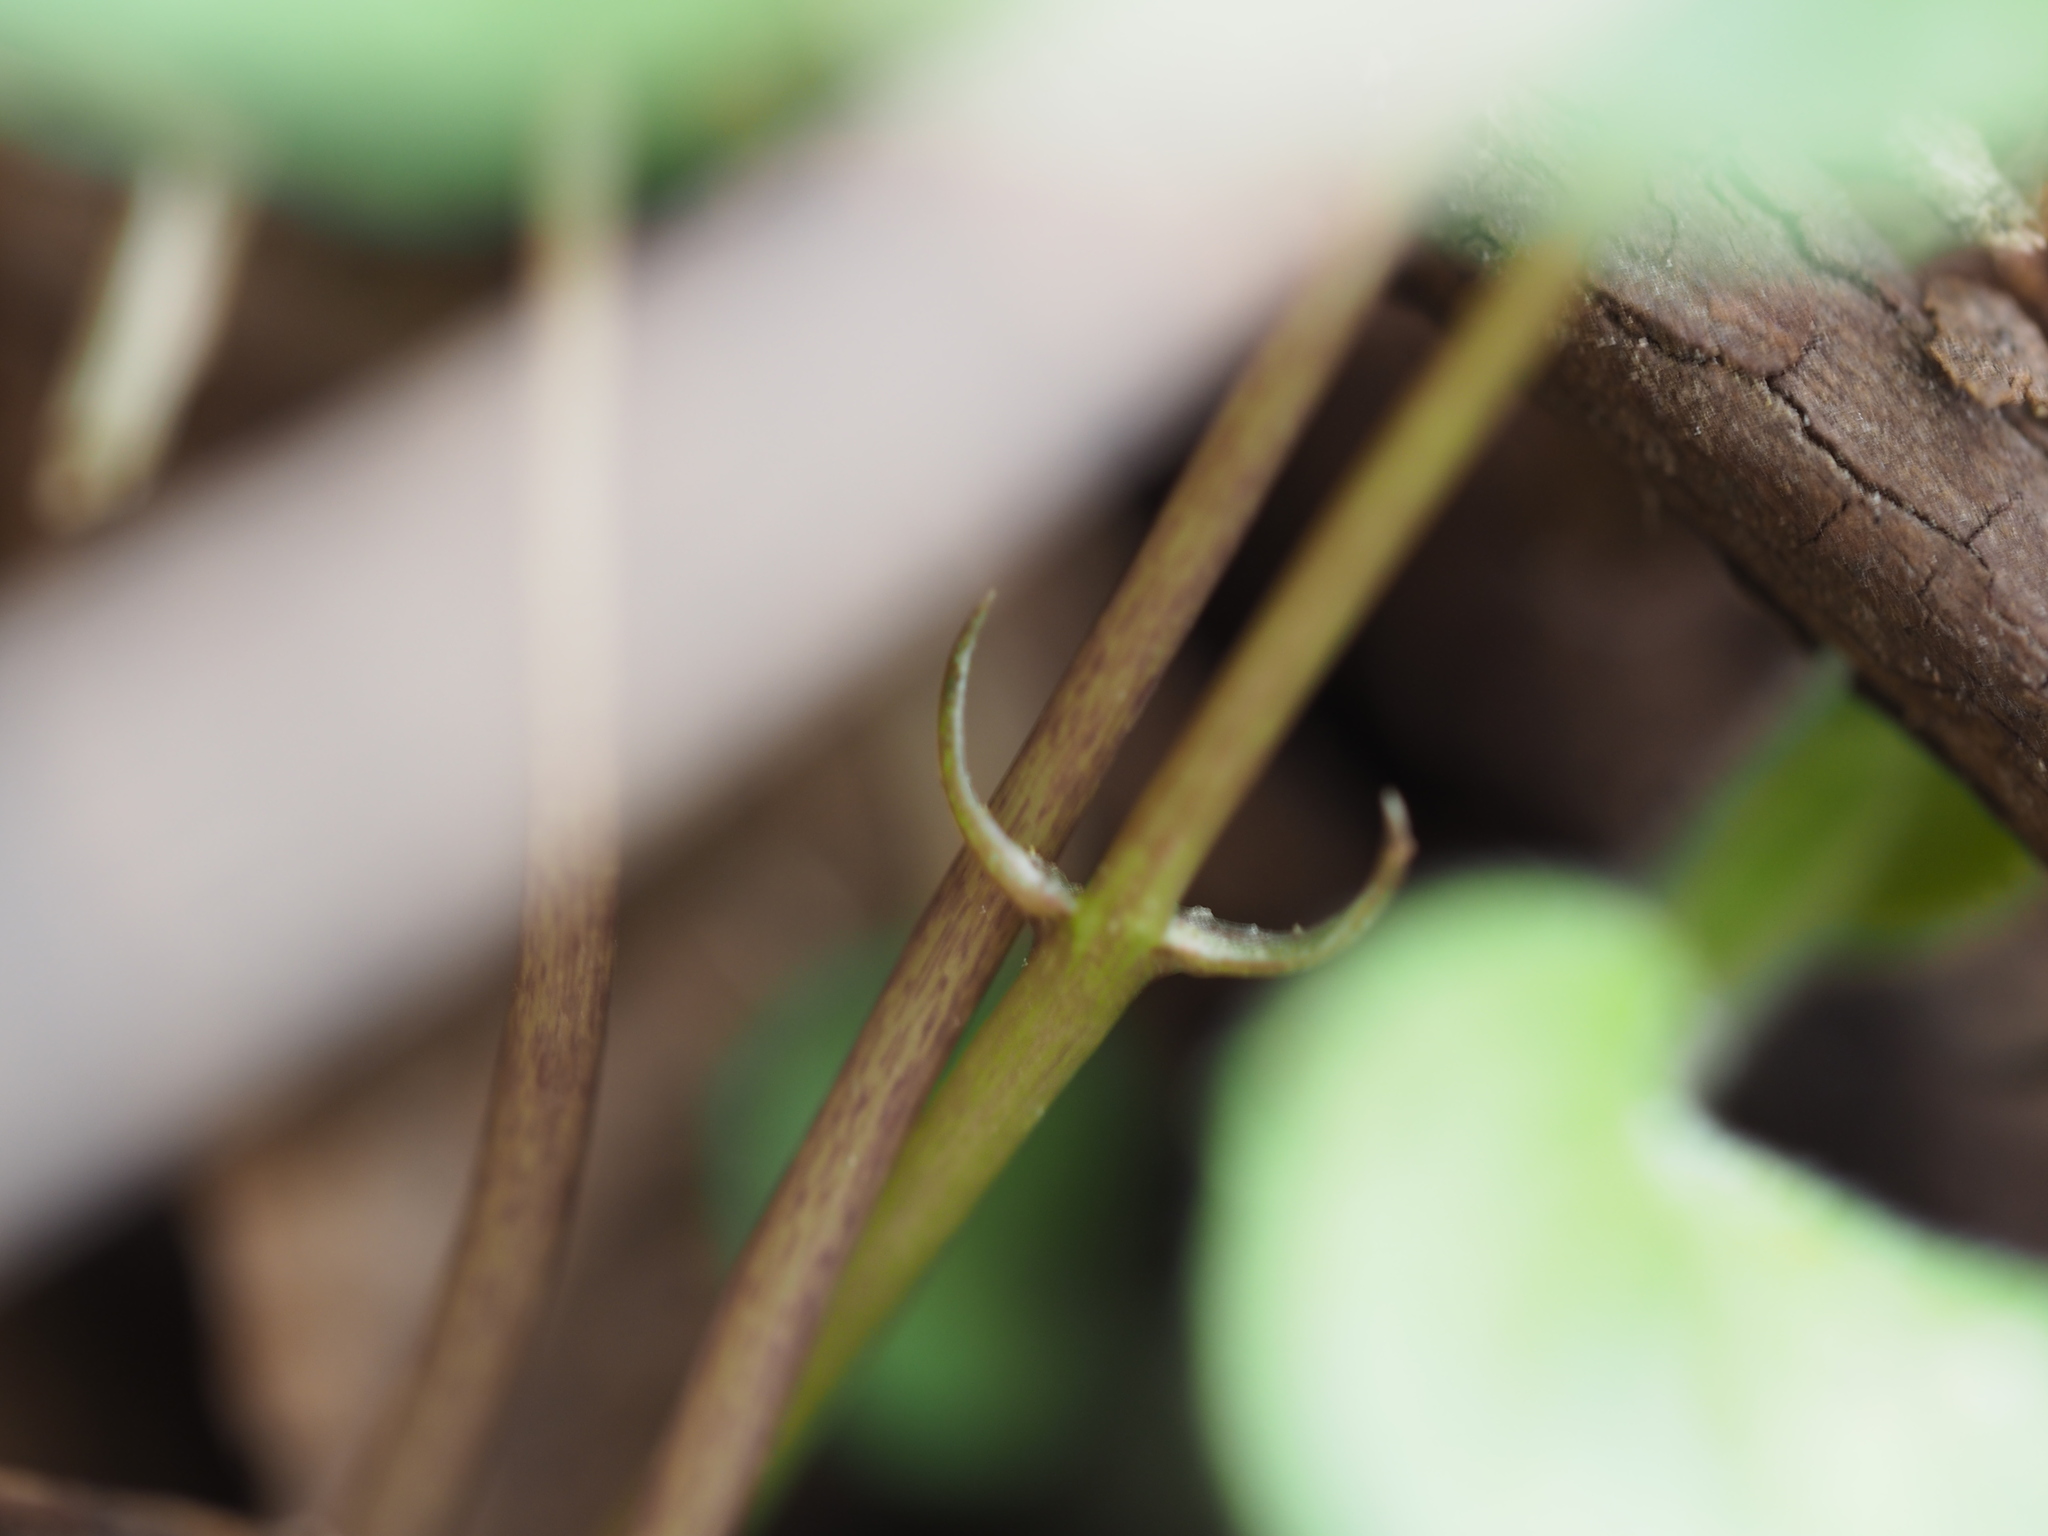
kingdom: Plantae
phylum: Tracheophyta
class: Magnoliopsida
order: Malpighiales
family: Violaceae
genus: Viola
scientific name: Viola shikokiana
